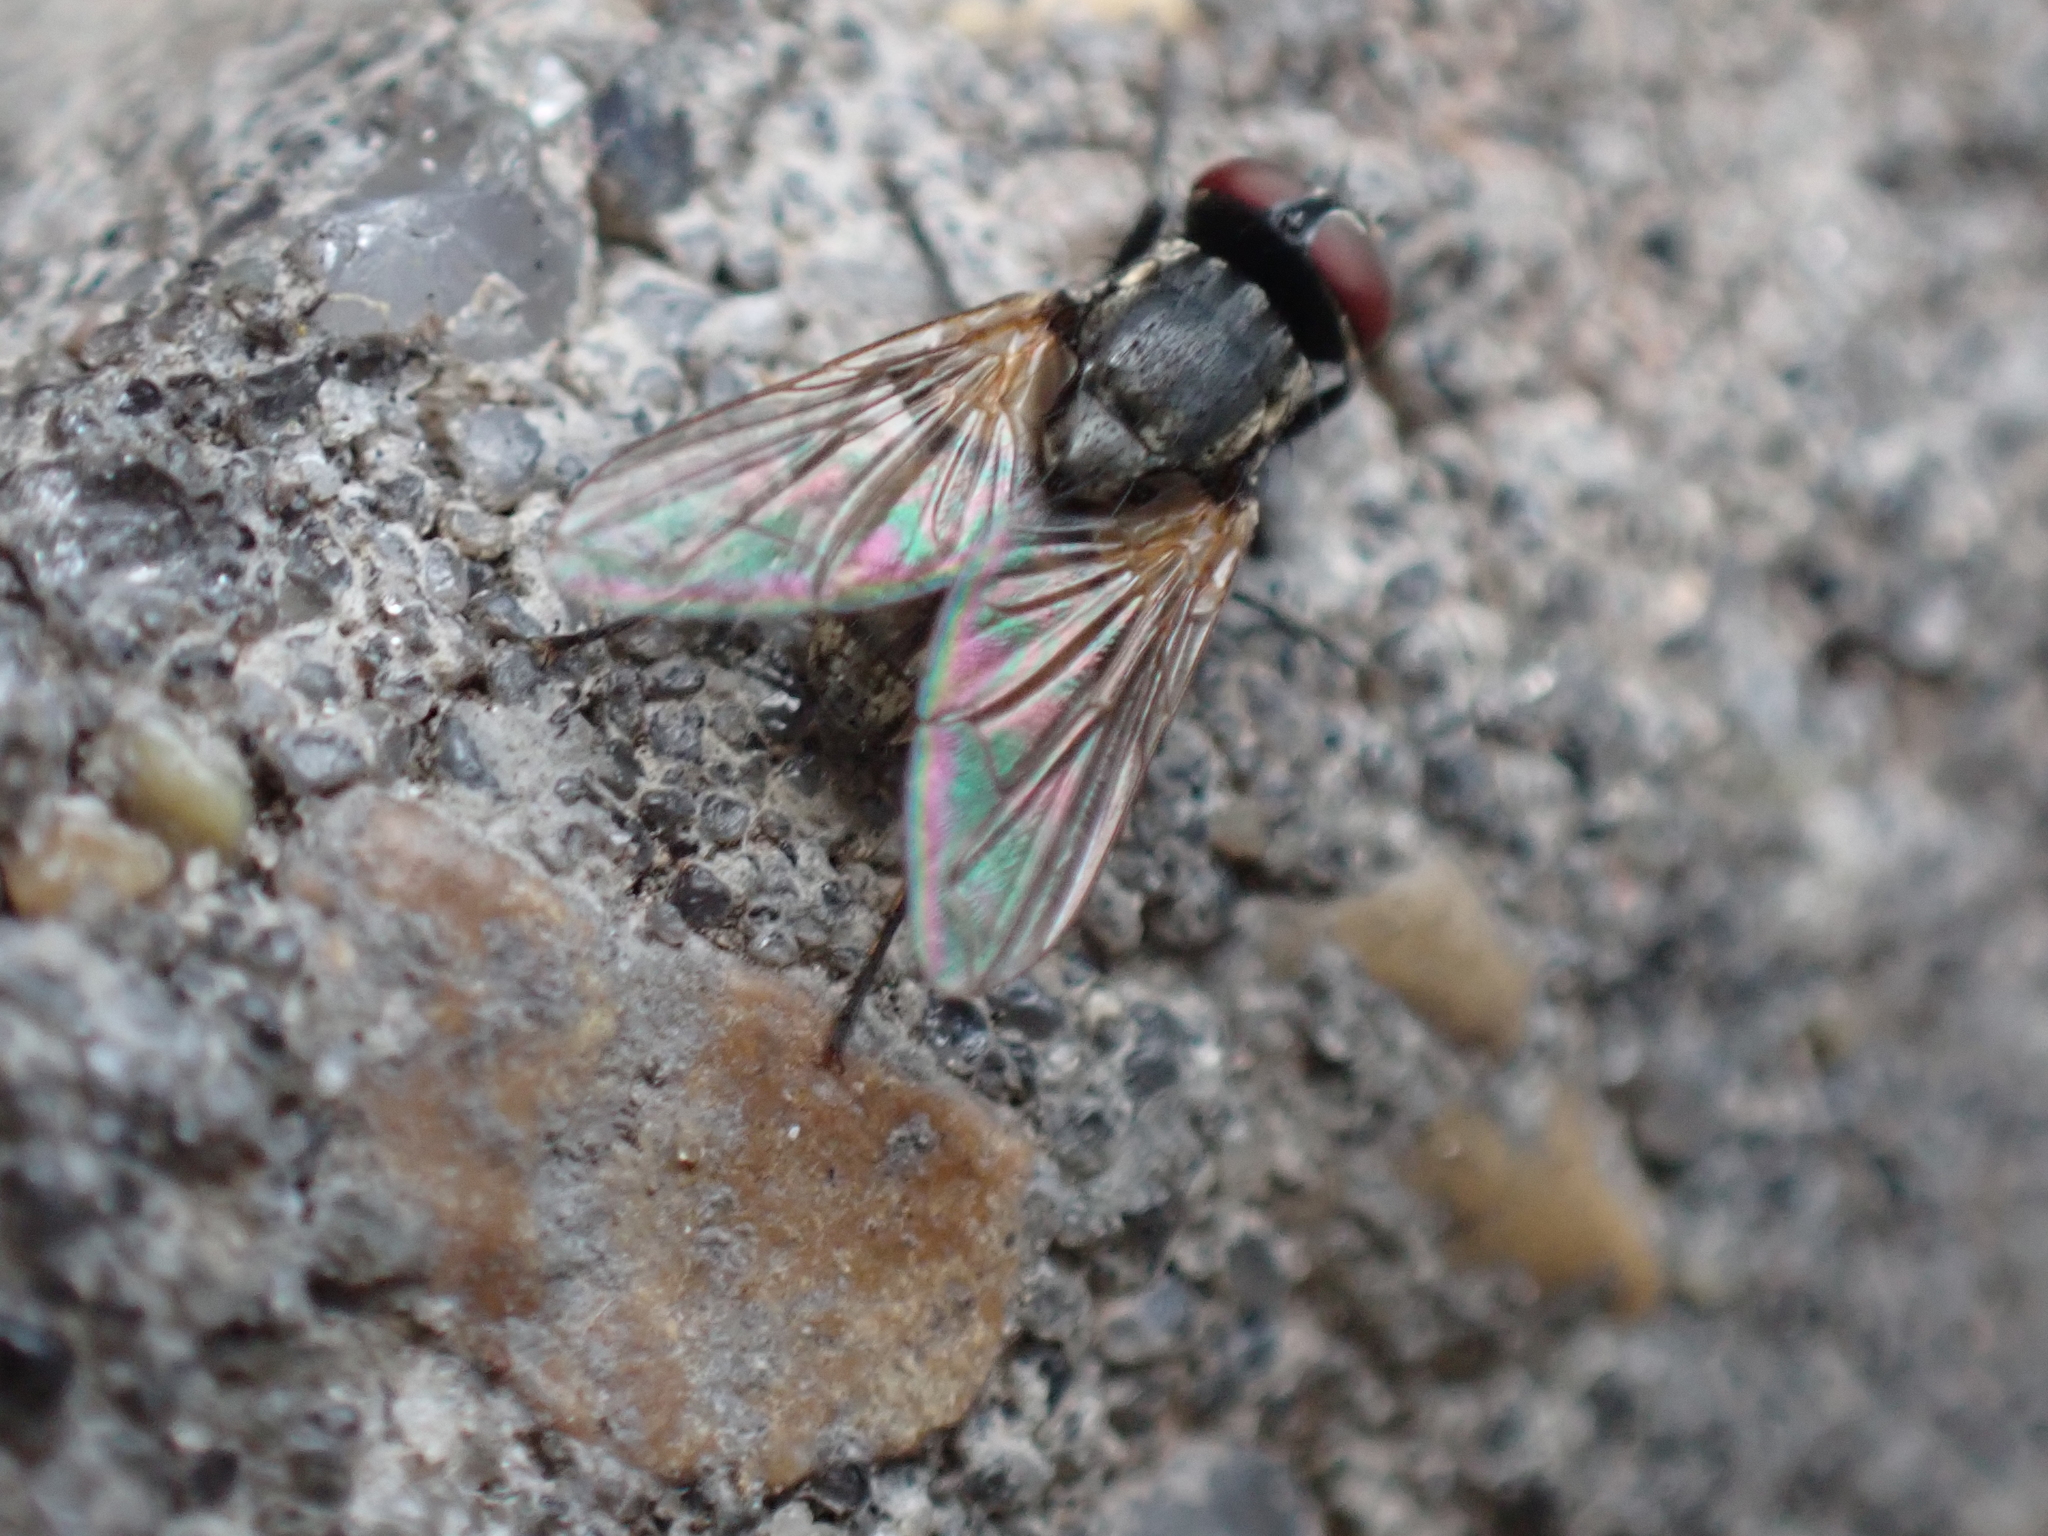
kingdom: Animalia
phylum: Arthropoda
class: Insecta
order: Diptera
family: Muscidae
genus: Musca
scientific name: Musca domestica
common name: House fly
